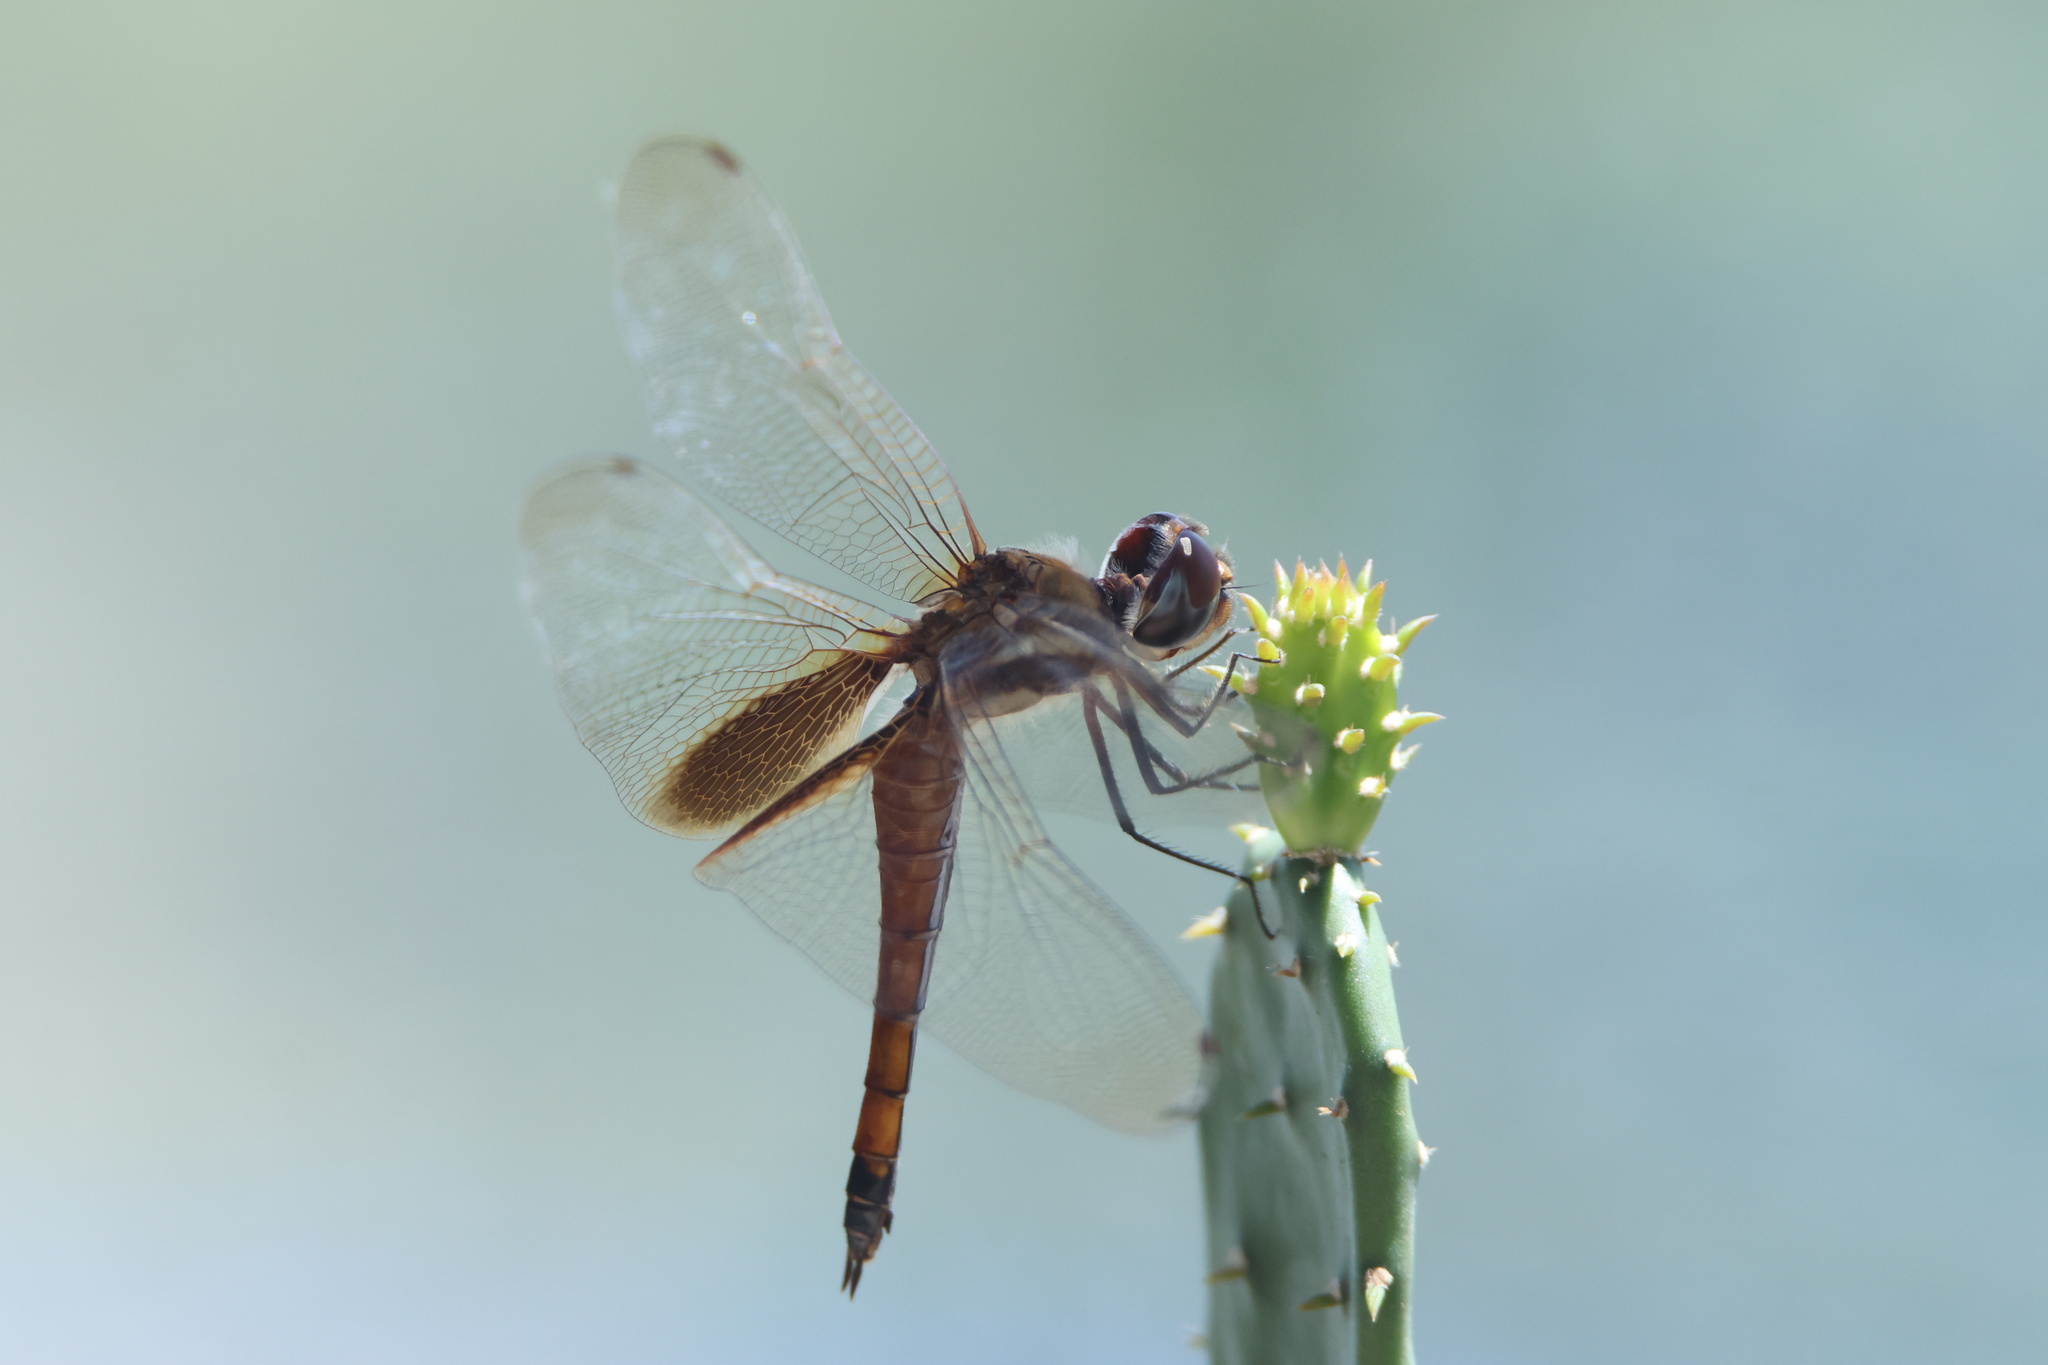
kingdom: Animalia
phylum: Arthropoda
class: Insecta
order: Odonata
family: Libellulidae
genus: Tramea
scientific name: Tramea darwini
